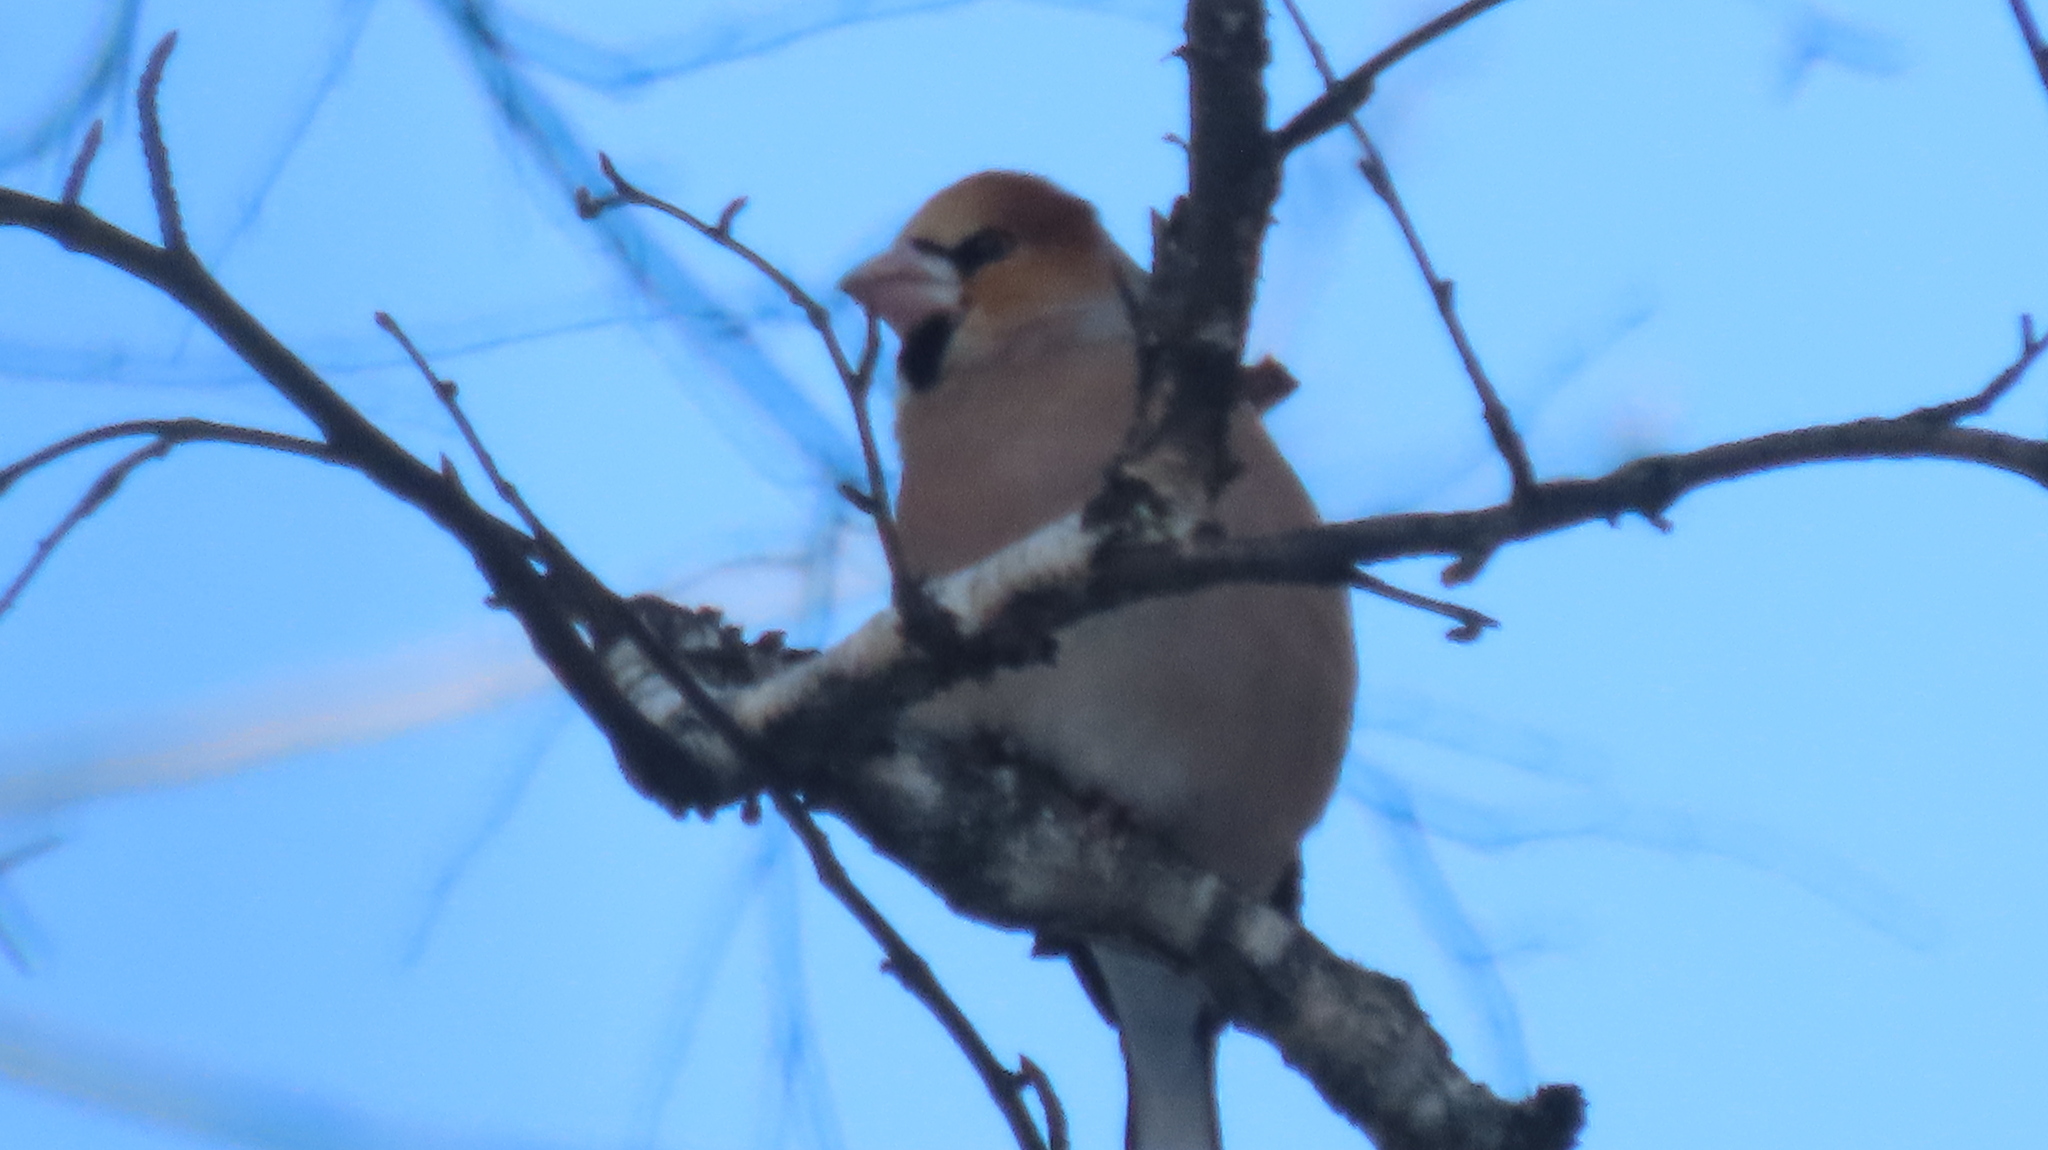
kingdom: Animalia
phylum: Chordata
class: Aves
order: Passeriformes
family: Fringillidae
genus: Coccothraustes
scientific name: Coccothraustes coccothraustes
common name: Hawfinch
